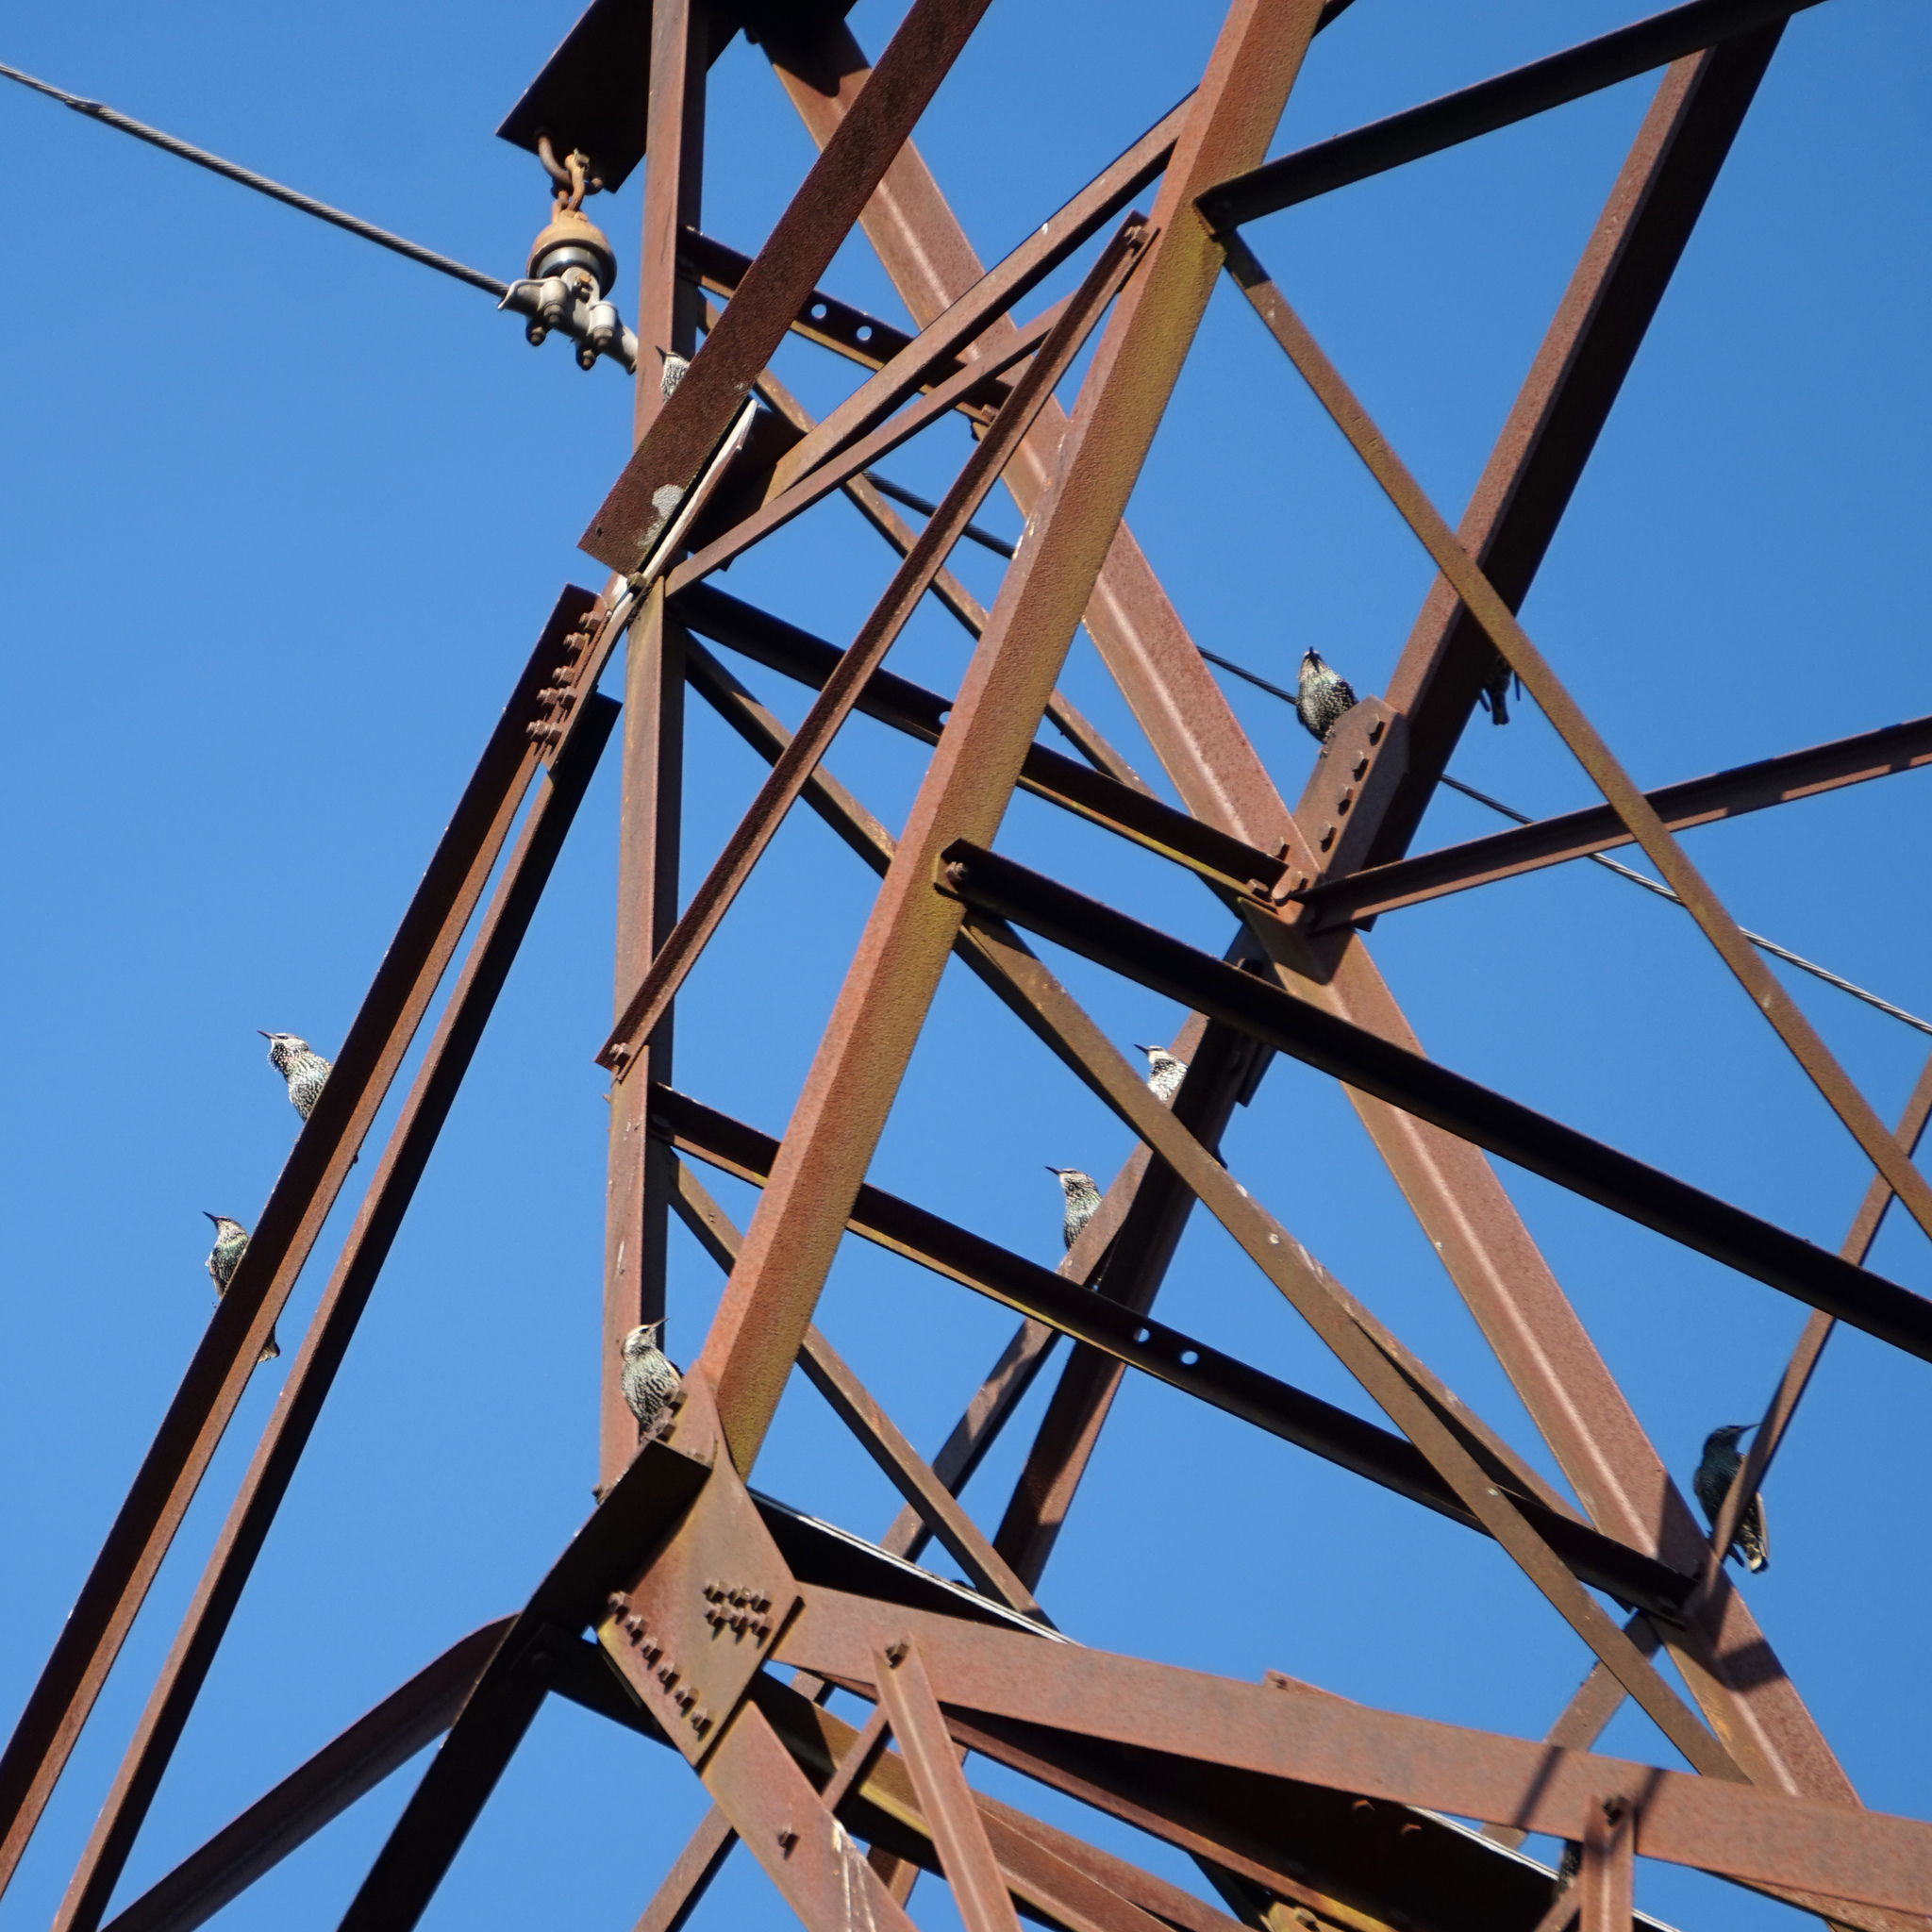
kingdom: Animalia
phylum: Chordata
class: Aves
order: Passeriformes
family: Sturnidae
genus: Sturnus
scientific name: Sturnus vulgaris
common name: Common starling
